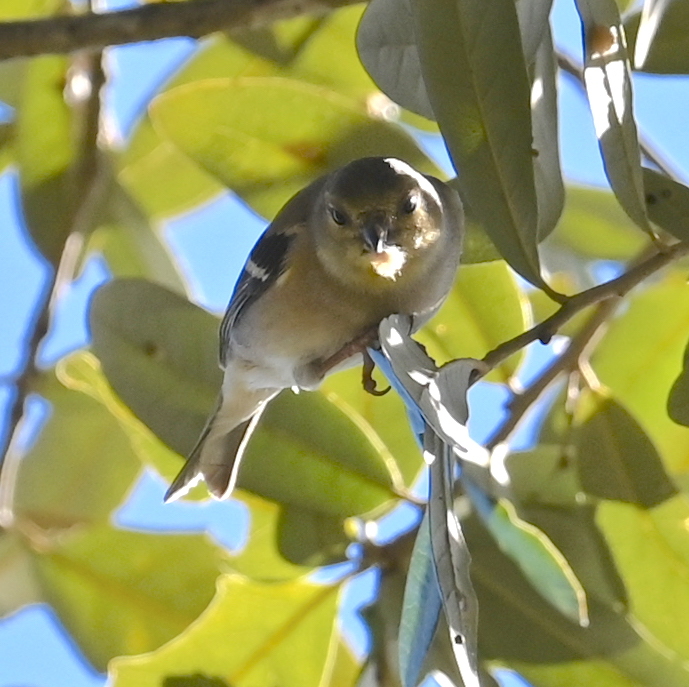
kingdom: Animalia
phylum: Chordata
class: Aves
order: Passeriformes
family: Fringillidae
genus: Spinus
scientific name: Spinus tristis
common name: American goldfinch
